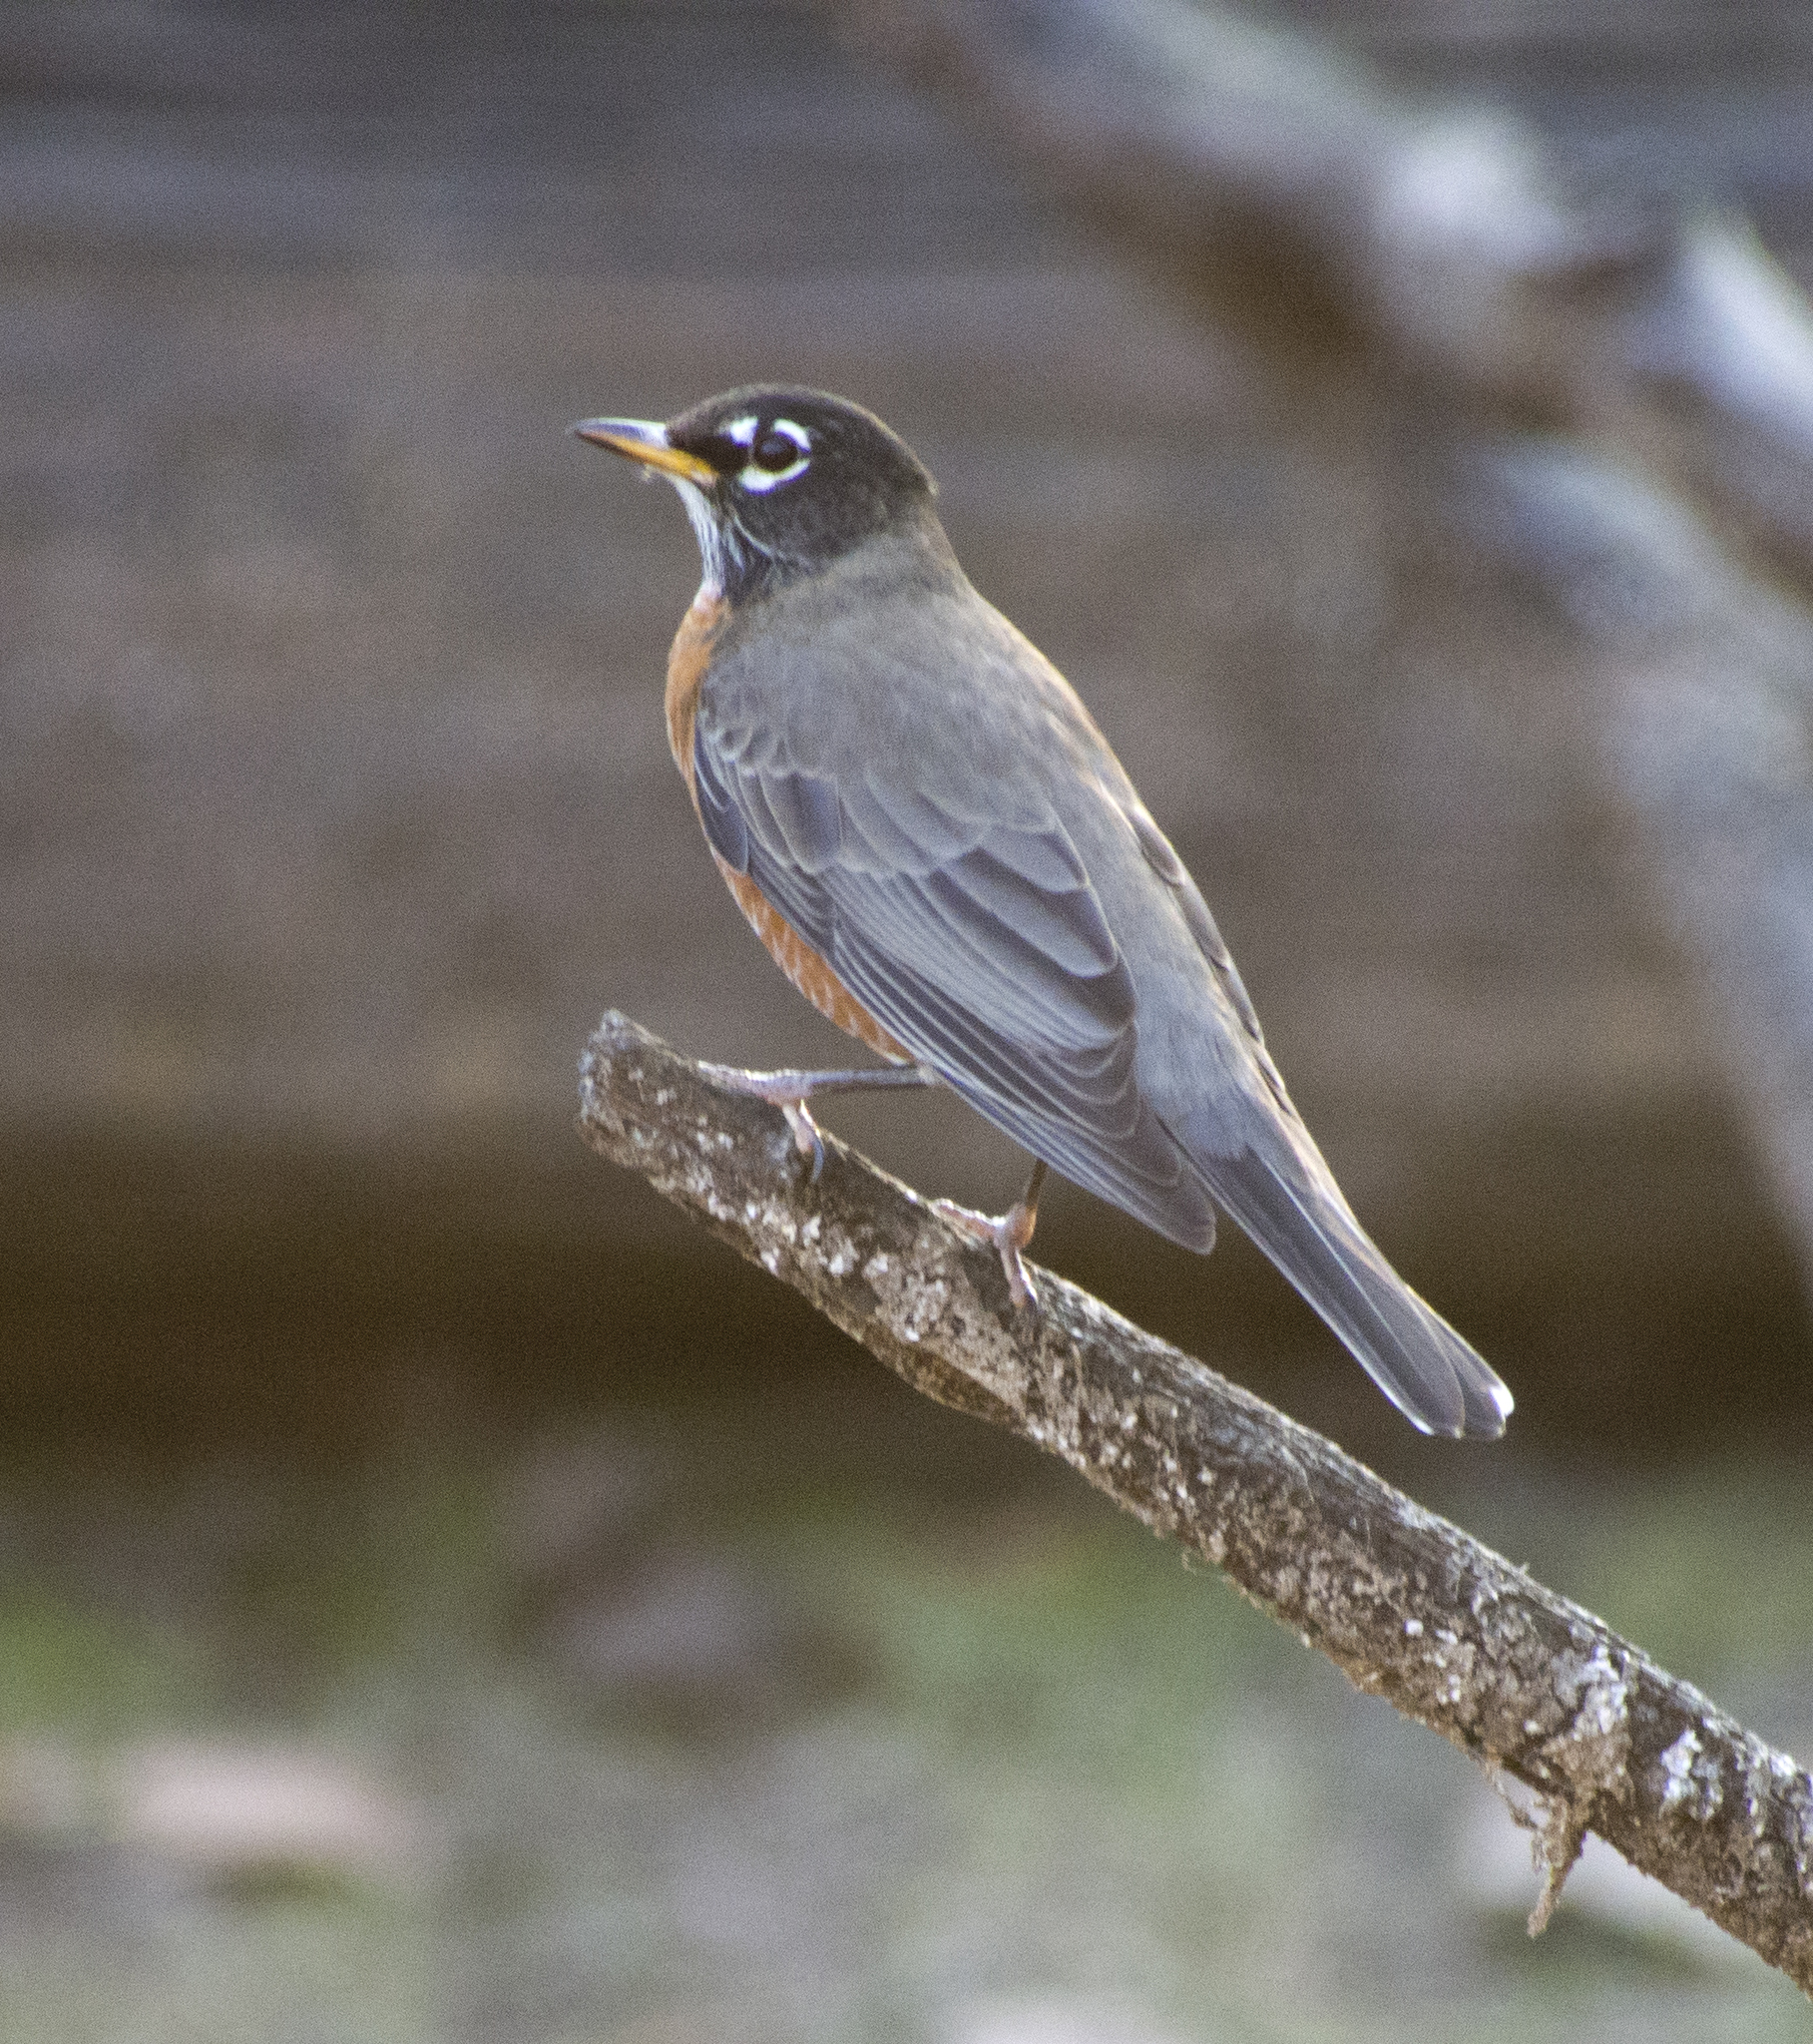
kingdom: Animalia
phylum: Chordata
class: Aves
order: Passeriformes
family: Turdidae
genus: Turdus
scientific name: Turdus migratorius
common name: American robin
